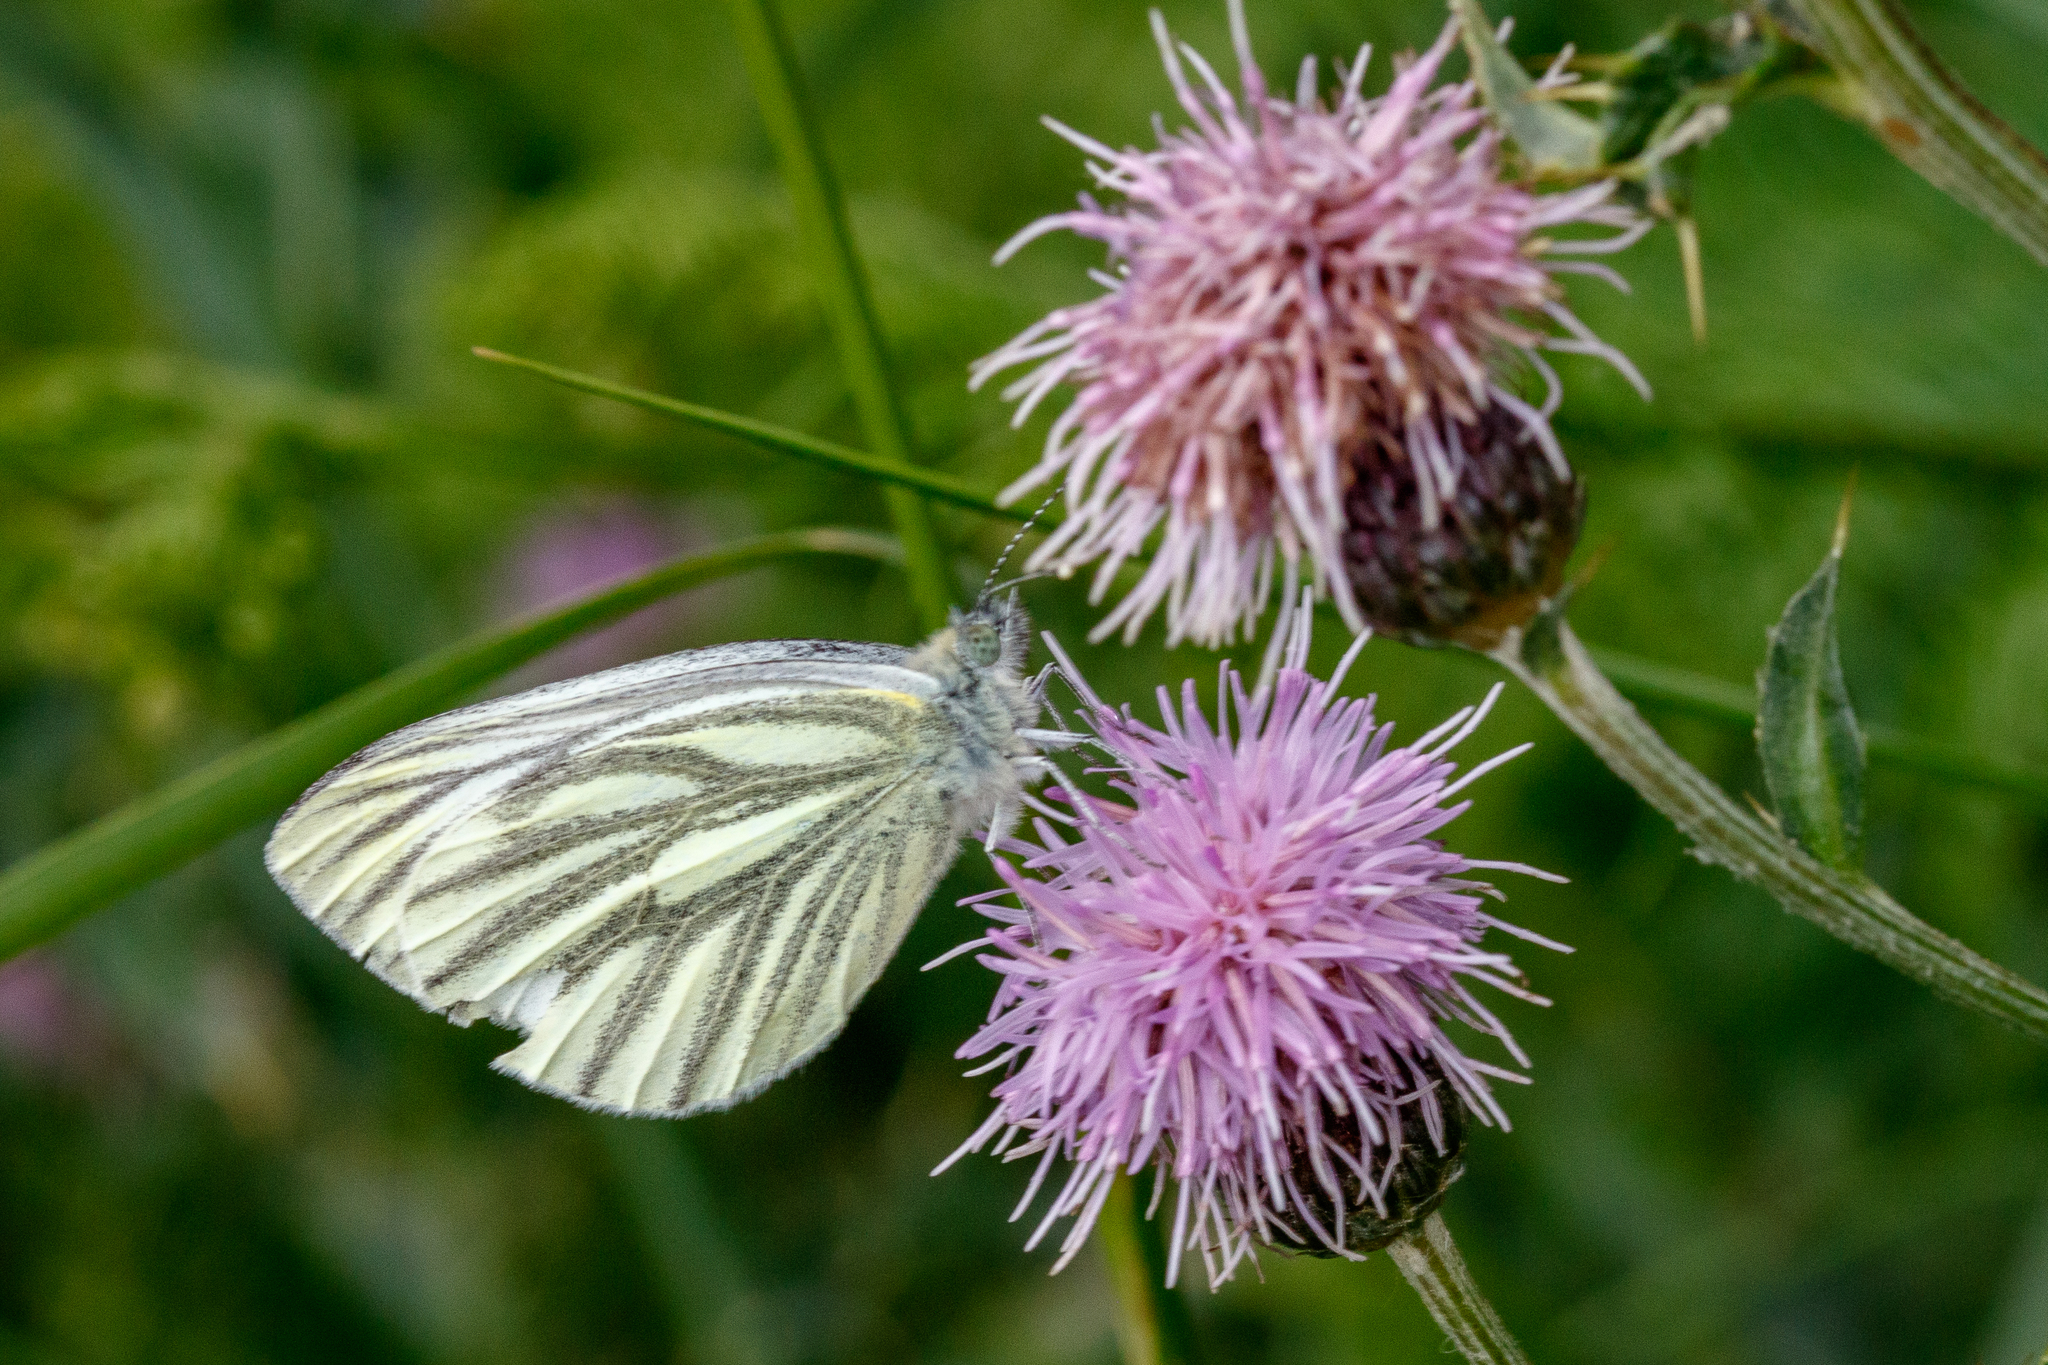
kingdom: Animalia
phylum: Arthropoda
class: Insecta
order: Lepidoptera
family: Pieridae
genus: Pieris
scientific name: Pieris napi
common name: Green-veined white
